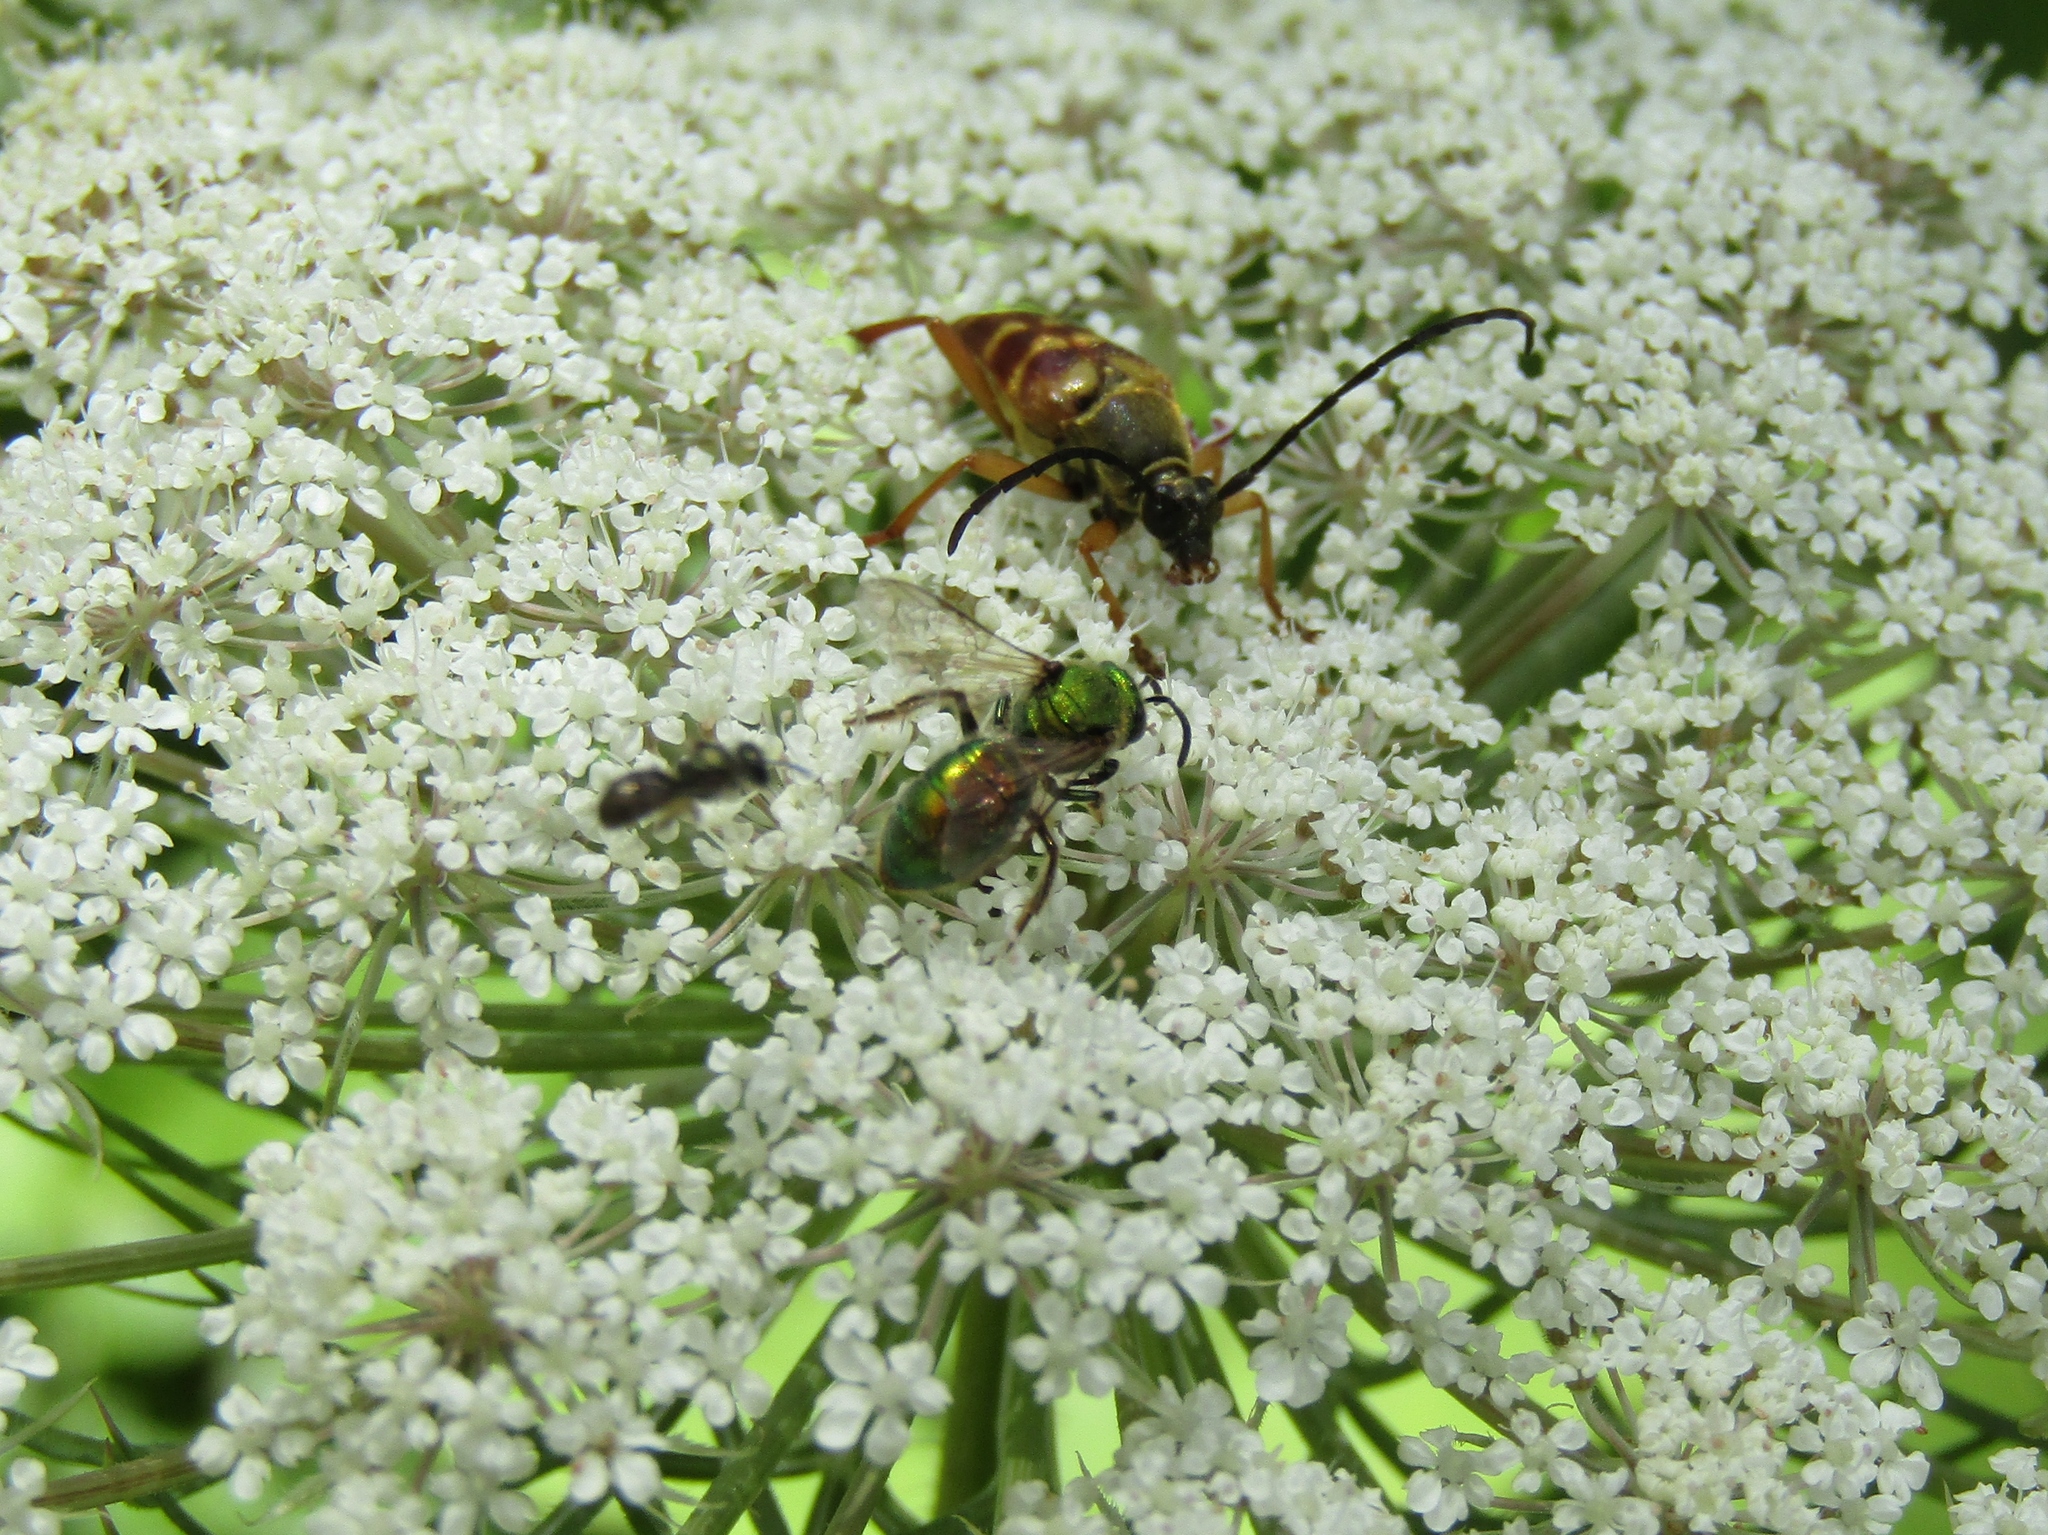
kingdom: Animalia
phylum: Arthropoda
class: Insecta
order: Coleoptera
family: Cerambycidae
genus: Typocerus
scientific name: Typocerus velutinus
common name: Banded longhorn beetle
